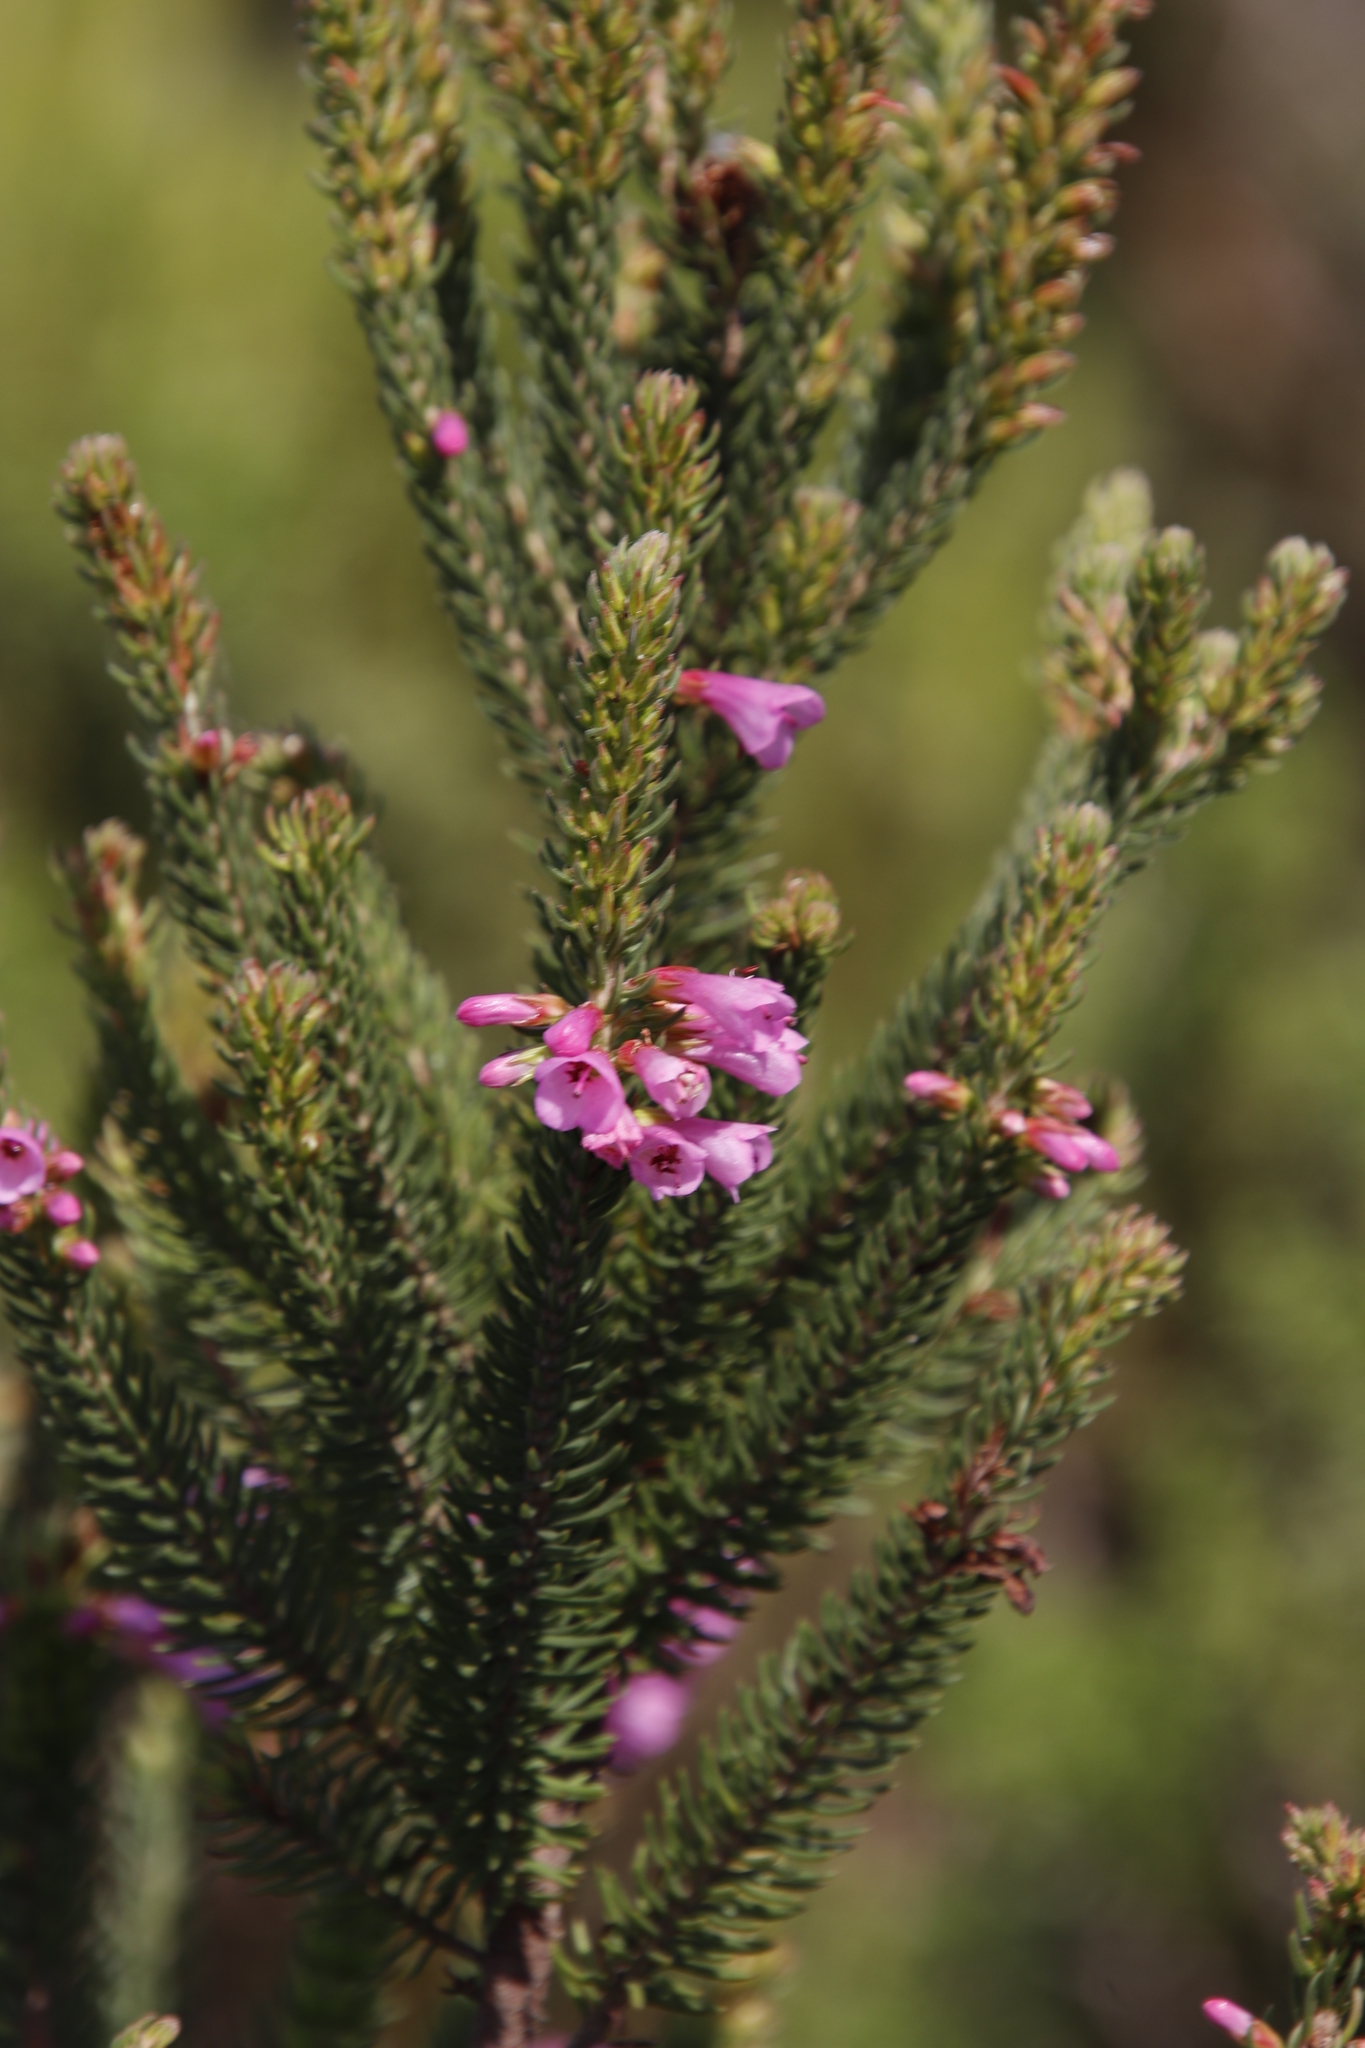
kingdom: Plantae
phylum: Tracheophyta
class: Magnoliopsida
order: Ericales
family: Ericaceae
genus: Erica
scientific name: Erica abietina
